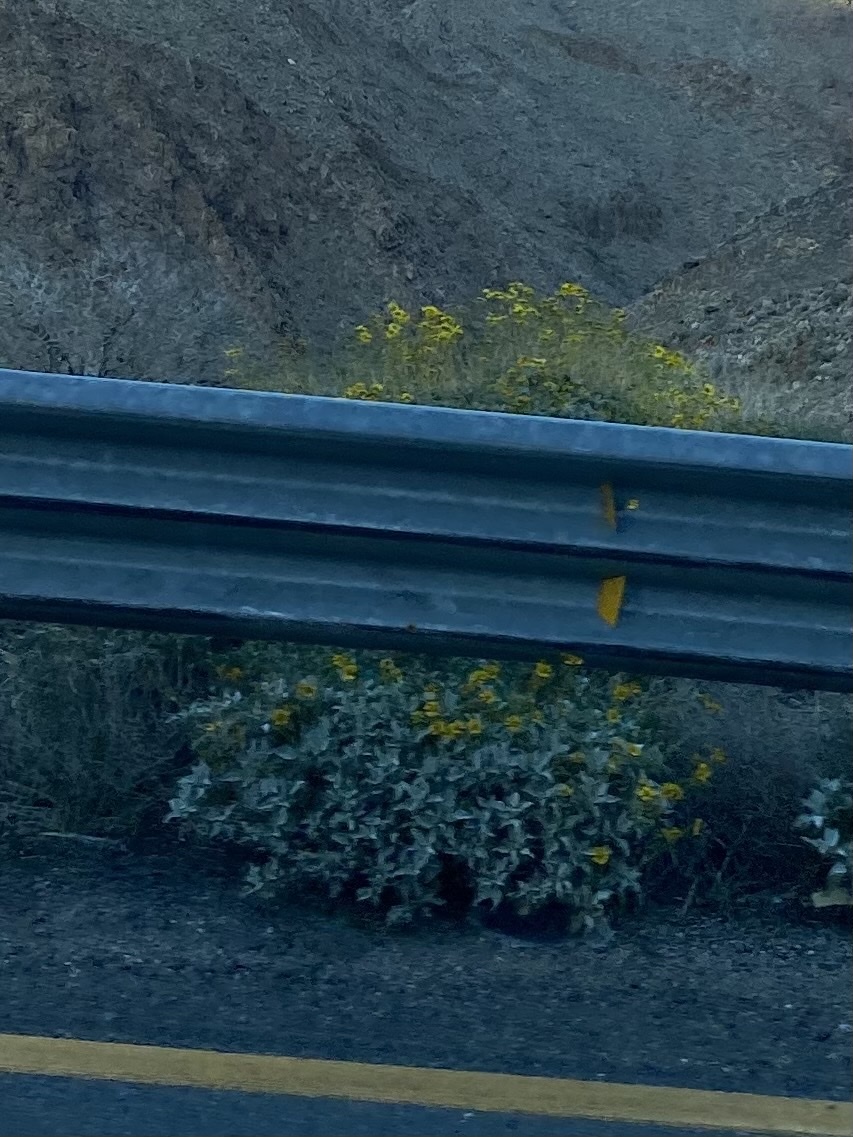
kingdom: Plantae
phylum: Tracheophyta
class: Magnoliopsida
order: Asterales
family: Asteraceae
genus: Encelia
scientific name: Encelia farinosa
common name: Brittlebush
